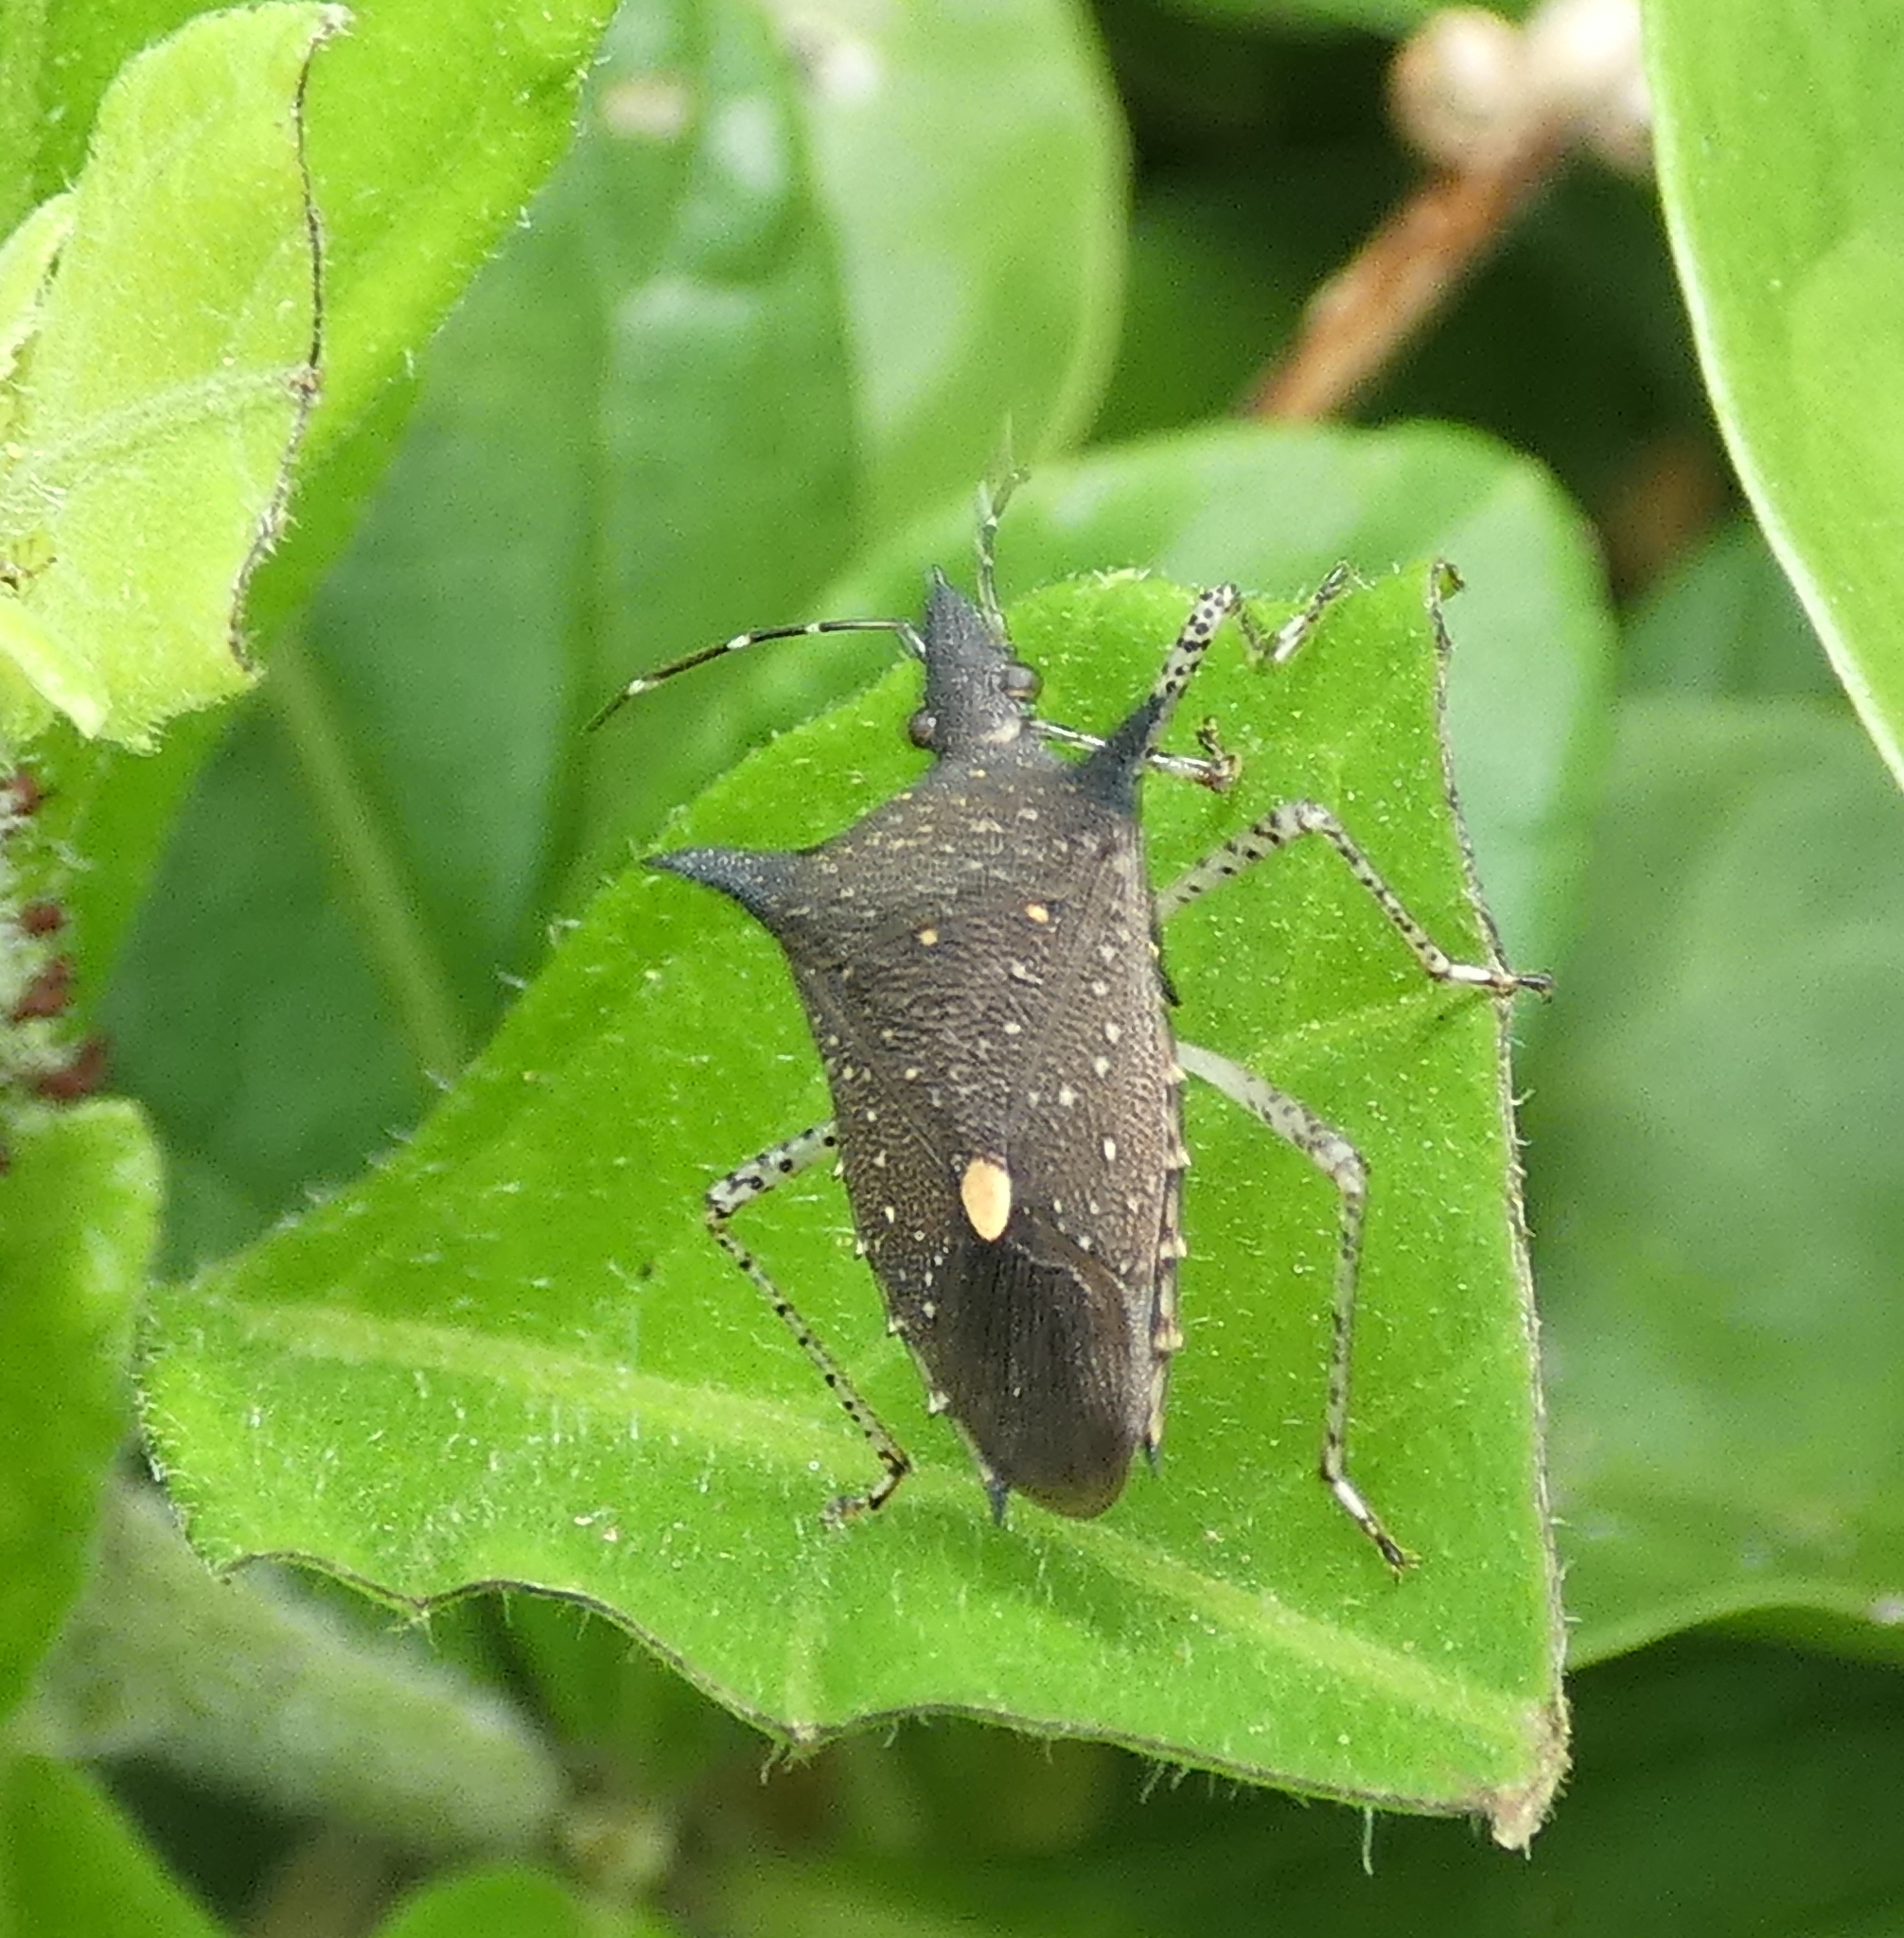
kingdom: Animalia
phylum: Arthropoda
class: Insecta
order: Hemiptera
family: Pentatomidae
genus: Proxys
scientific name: Proxys albopunctulatus
